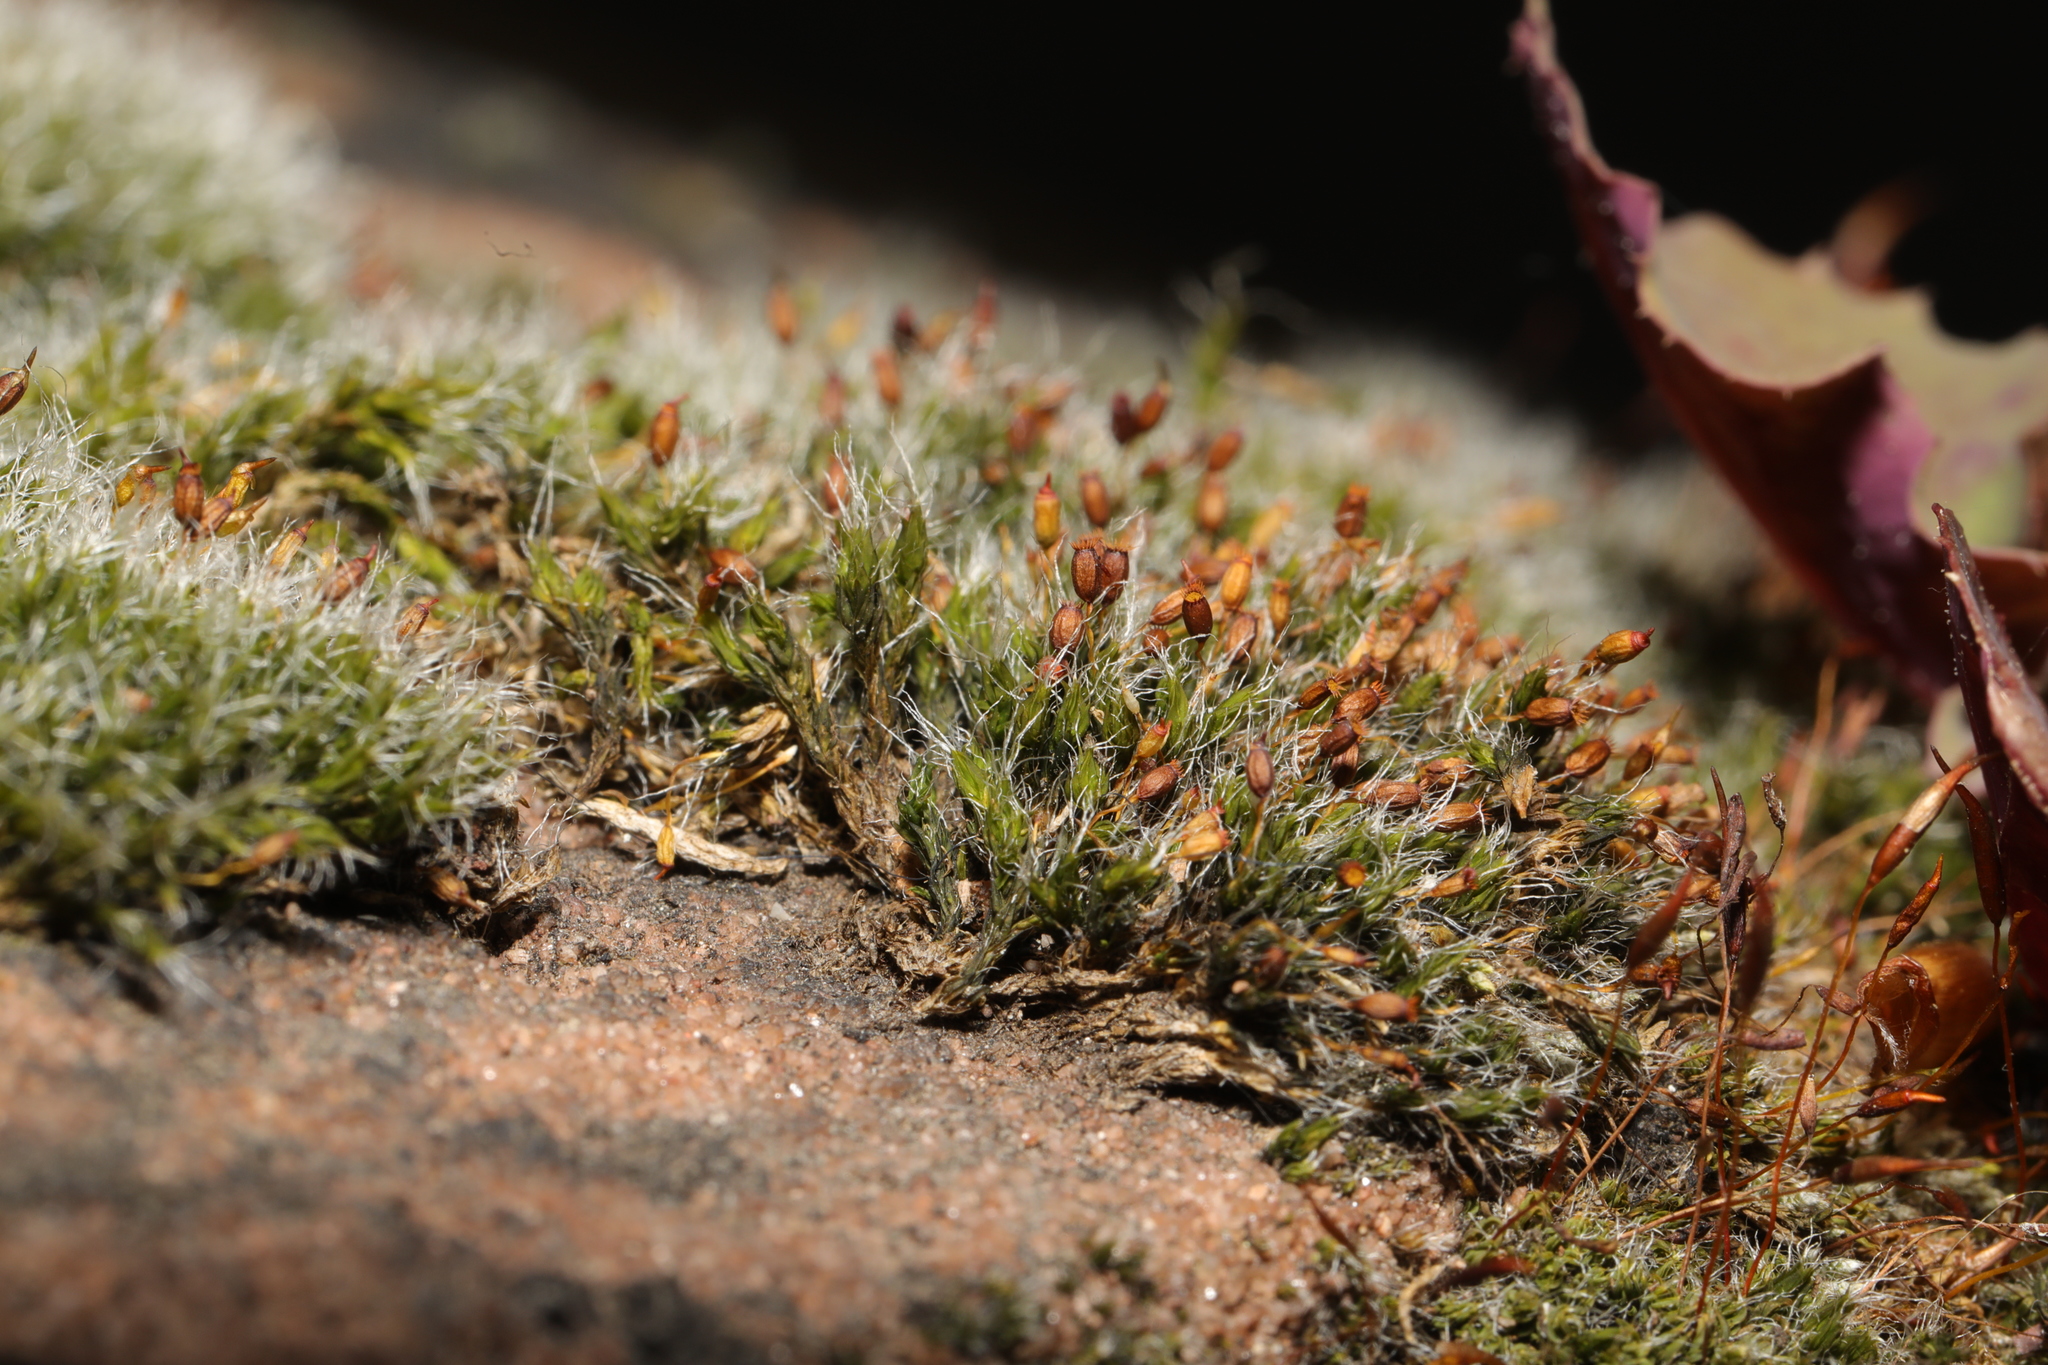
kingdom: Plantae
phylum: Bryophyta
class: Bryopsida
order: Grimmiales
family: Grimmiaceae
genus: Grimmia
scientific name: Grimmia pulvinata
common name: Grey-cushioned grimmia
